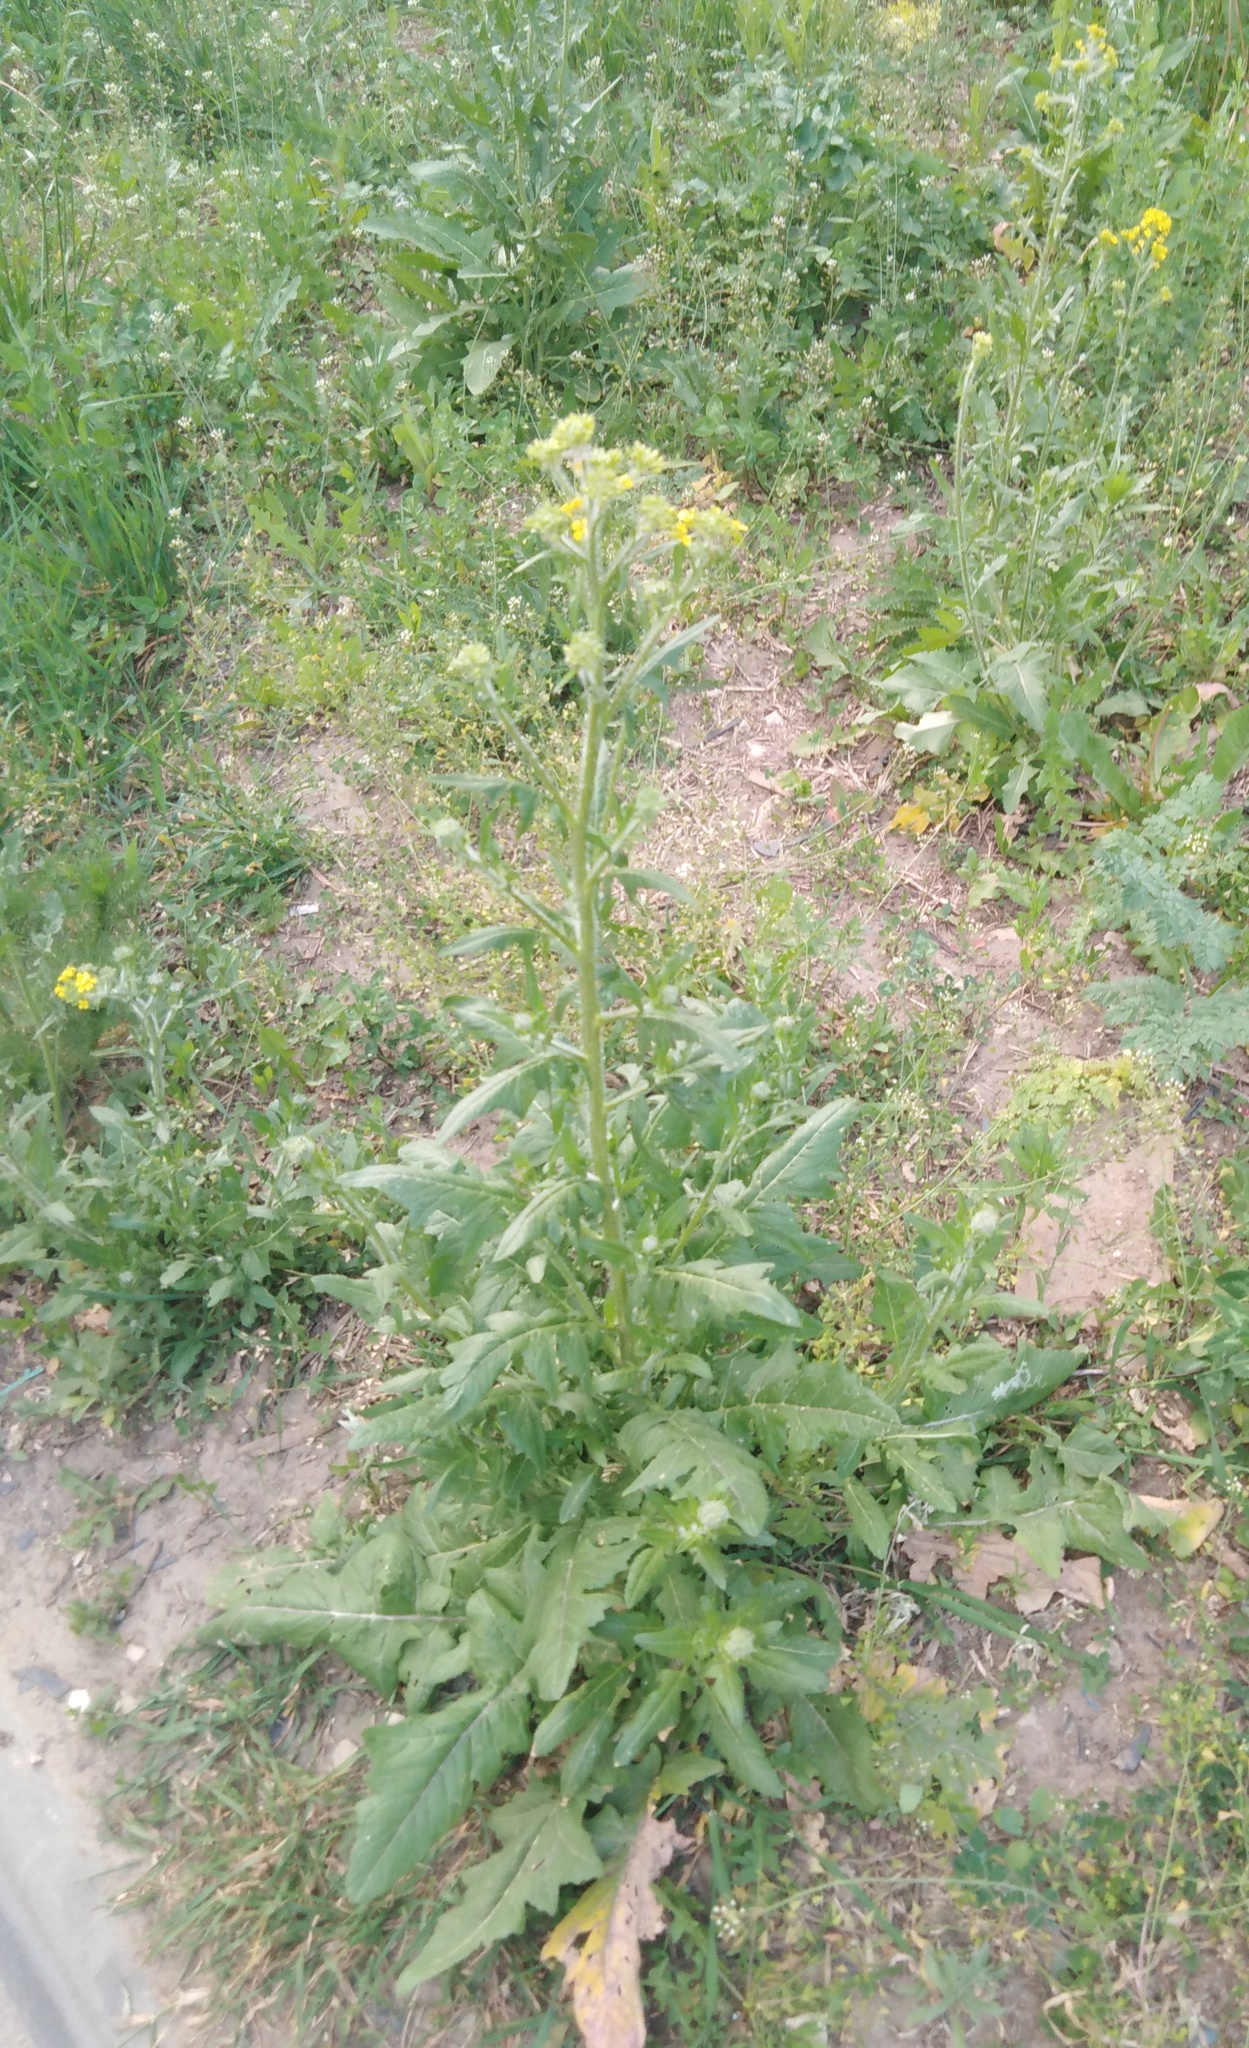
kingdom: Plantae
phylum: Tracheophyta
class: Magnoliopsida
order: Brassicales
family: Brassicaceae
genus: Sisymbrium
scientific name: Sisymbrium loeselii
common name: False london-rocket
